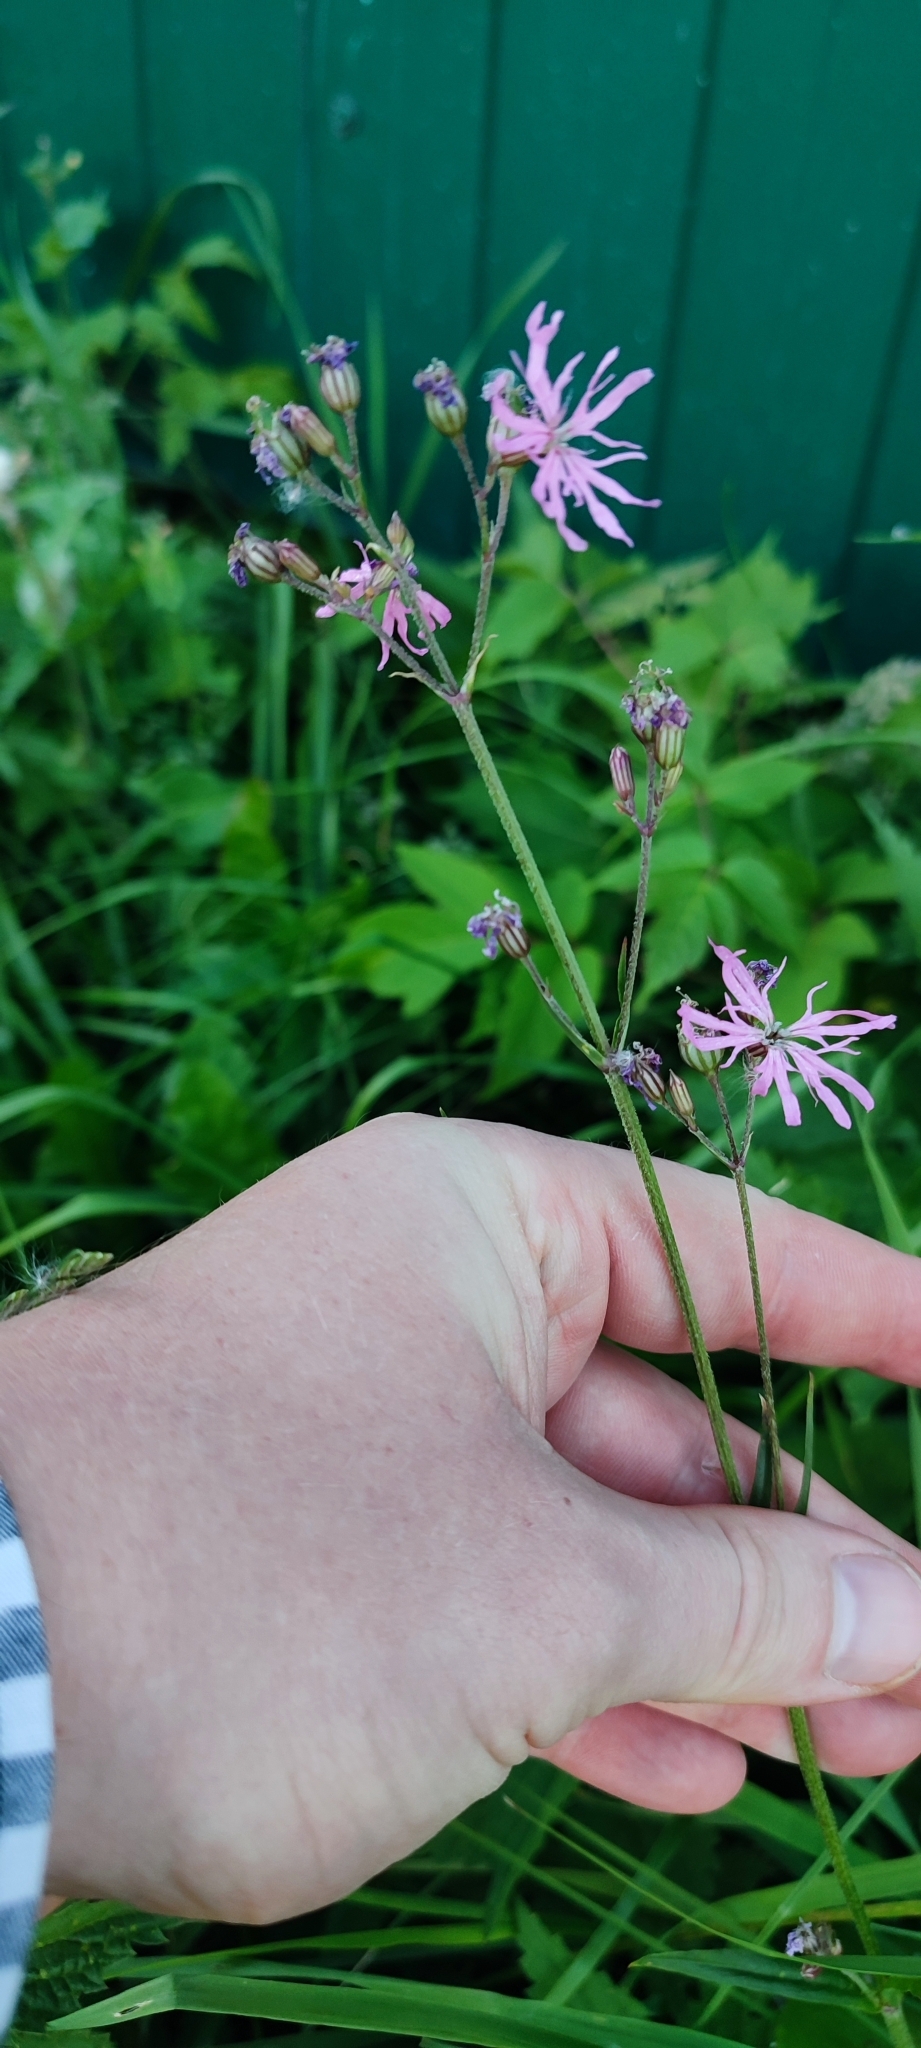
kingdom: Plantae
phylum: Tracheophyta
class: Magnoliopsida
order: Caryophyllales
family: Caryophyllaceae
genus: Silene
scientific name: Silene flos-cuculi
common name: Ragged-robin
